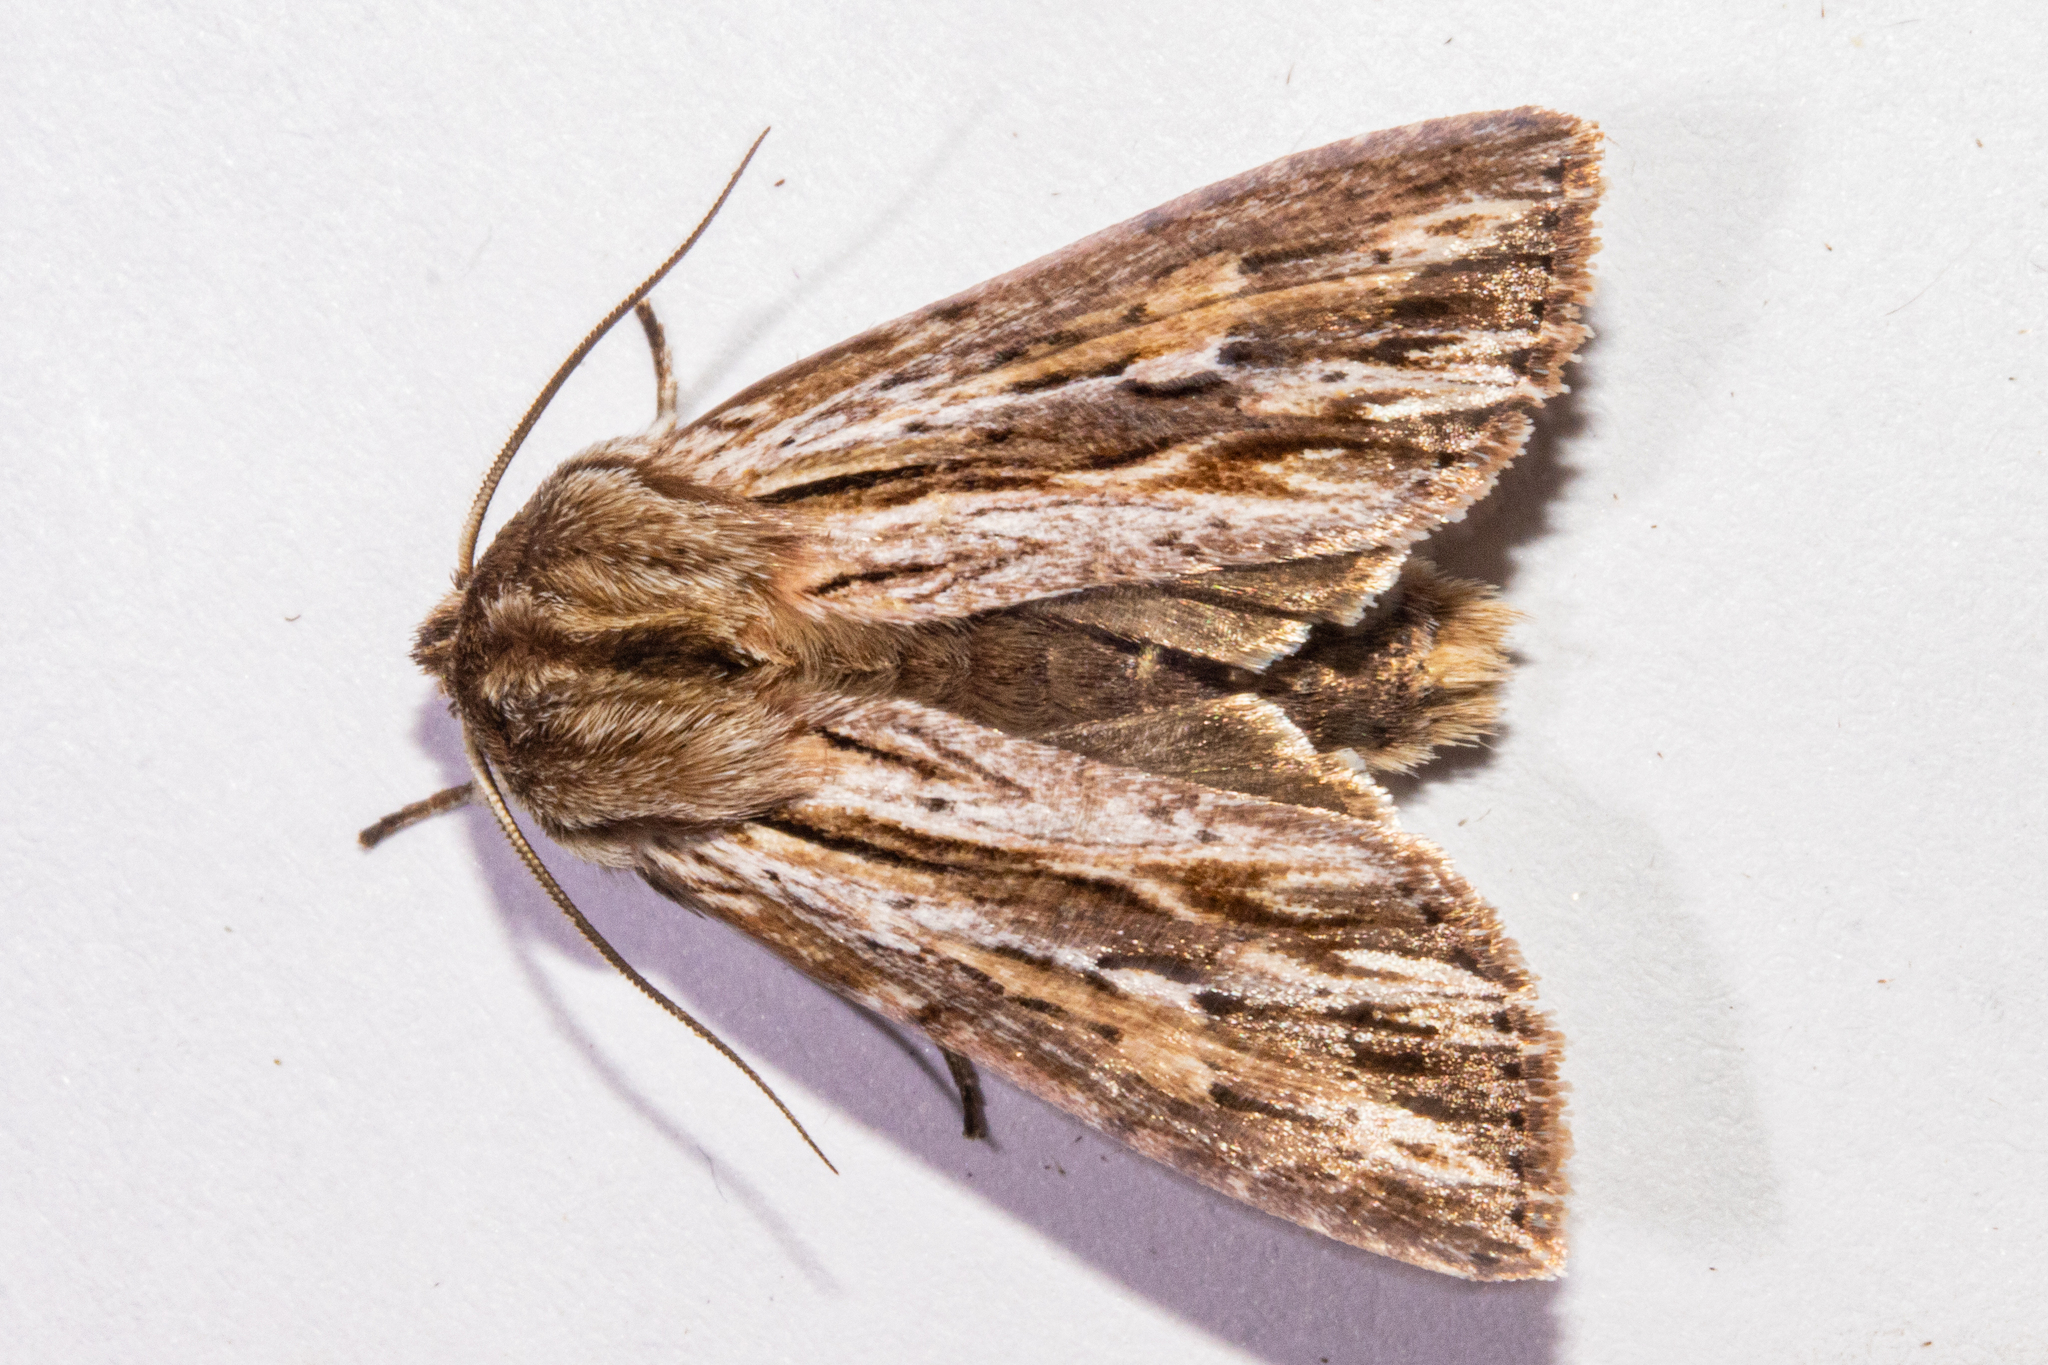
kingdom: Animalia
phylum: Arthropoda
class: Insecta
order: Lepidoptera
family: Noctuidae
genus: Ichneutica
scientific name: Ichneutica
